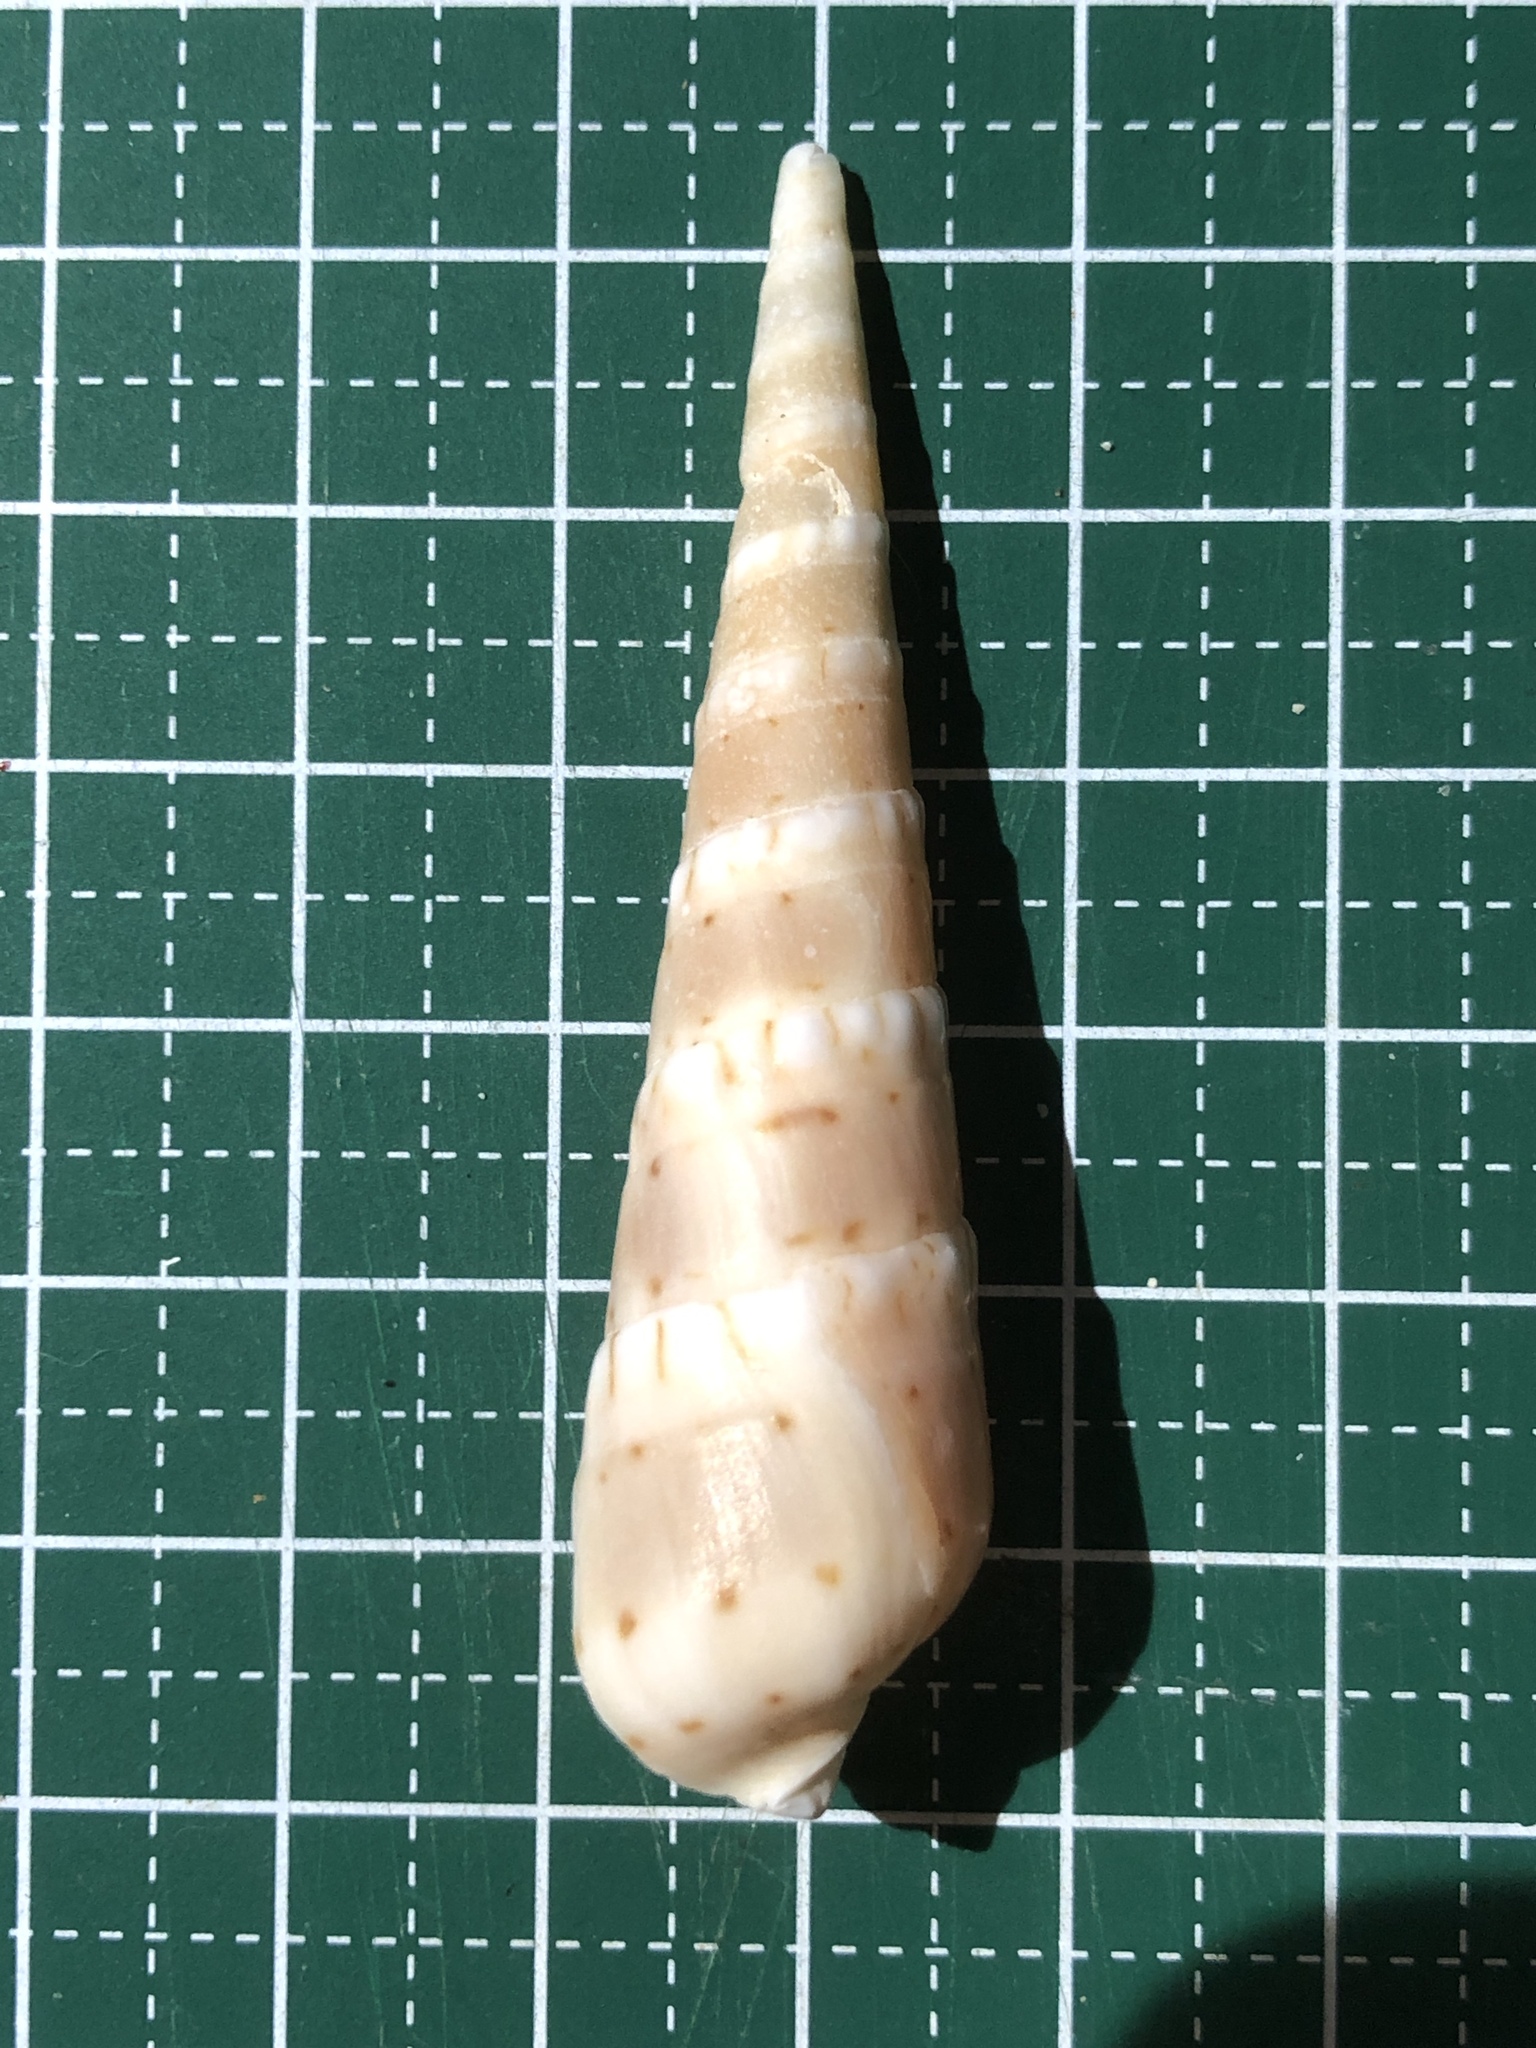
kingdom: Animalia
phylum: Mollusca
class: Gastropoda
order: Neogastropoda
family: Terebridae
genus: Oxymeris
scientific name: Oxymeris crenulata
